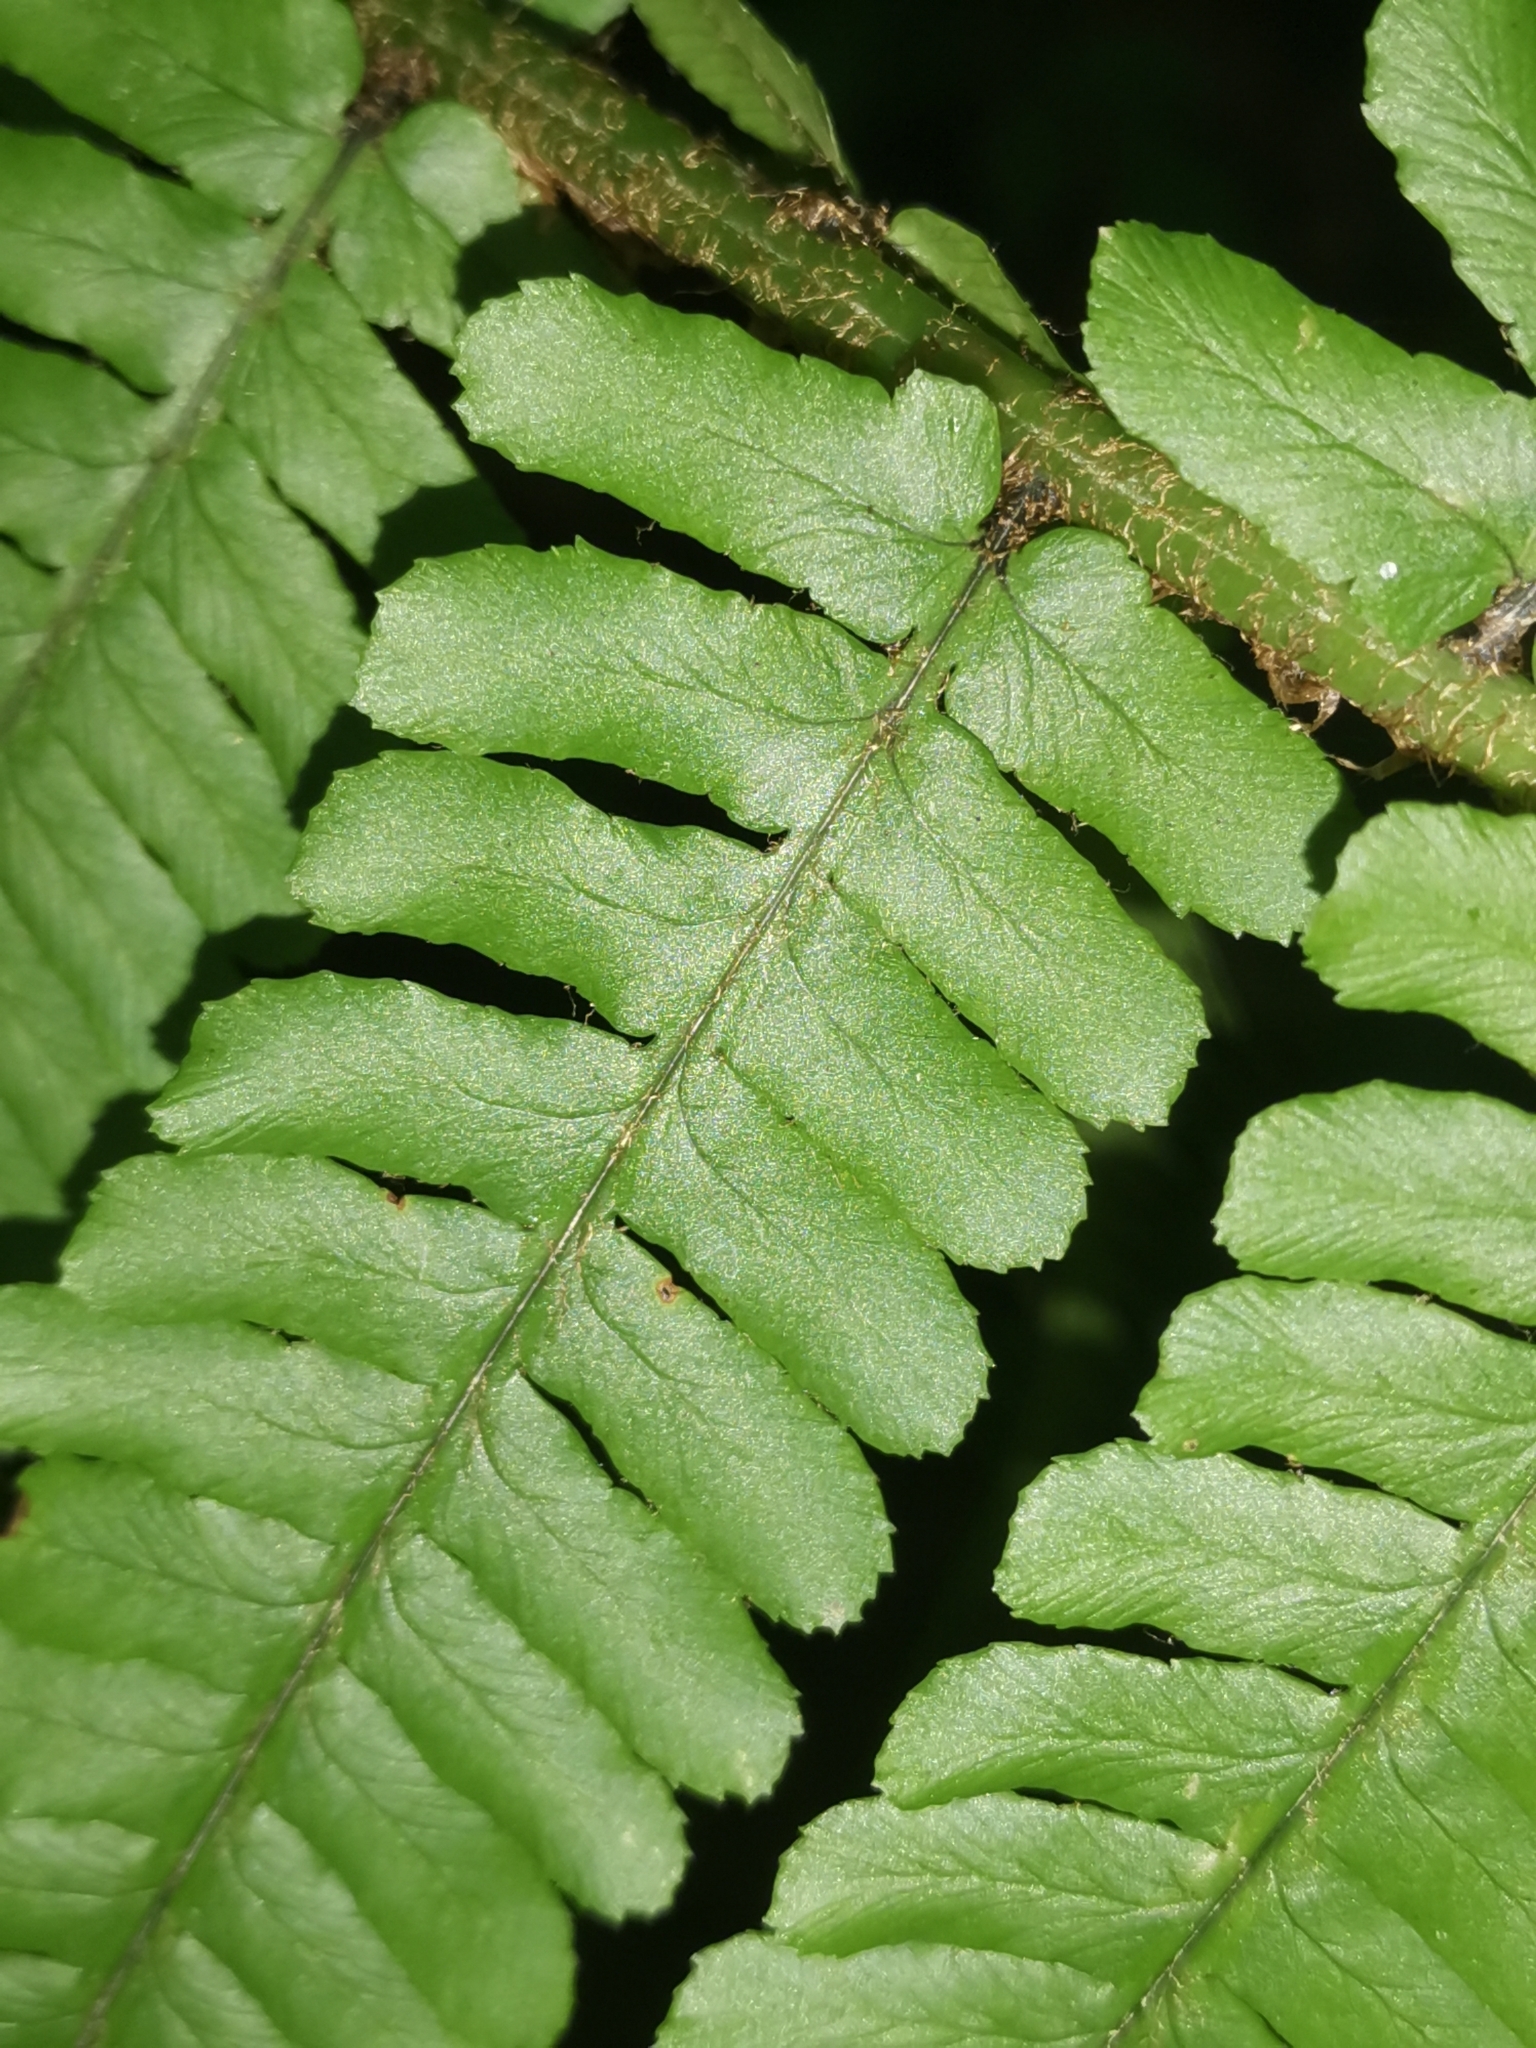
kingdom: Plantae
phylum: Tracheophyta
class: Polypodiopsida
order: Polypodiales
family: Dryopteridaceae
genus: Dryopteris
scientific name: Dryopteris borreri
